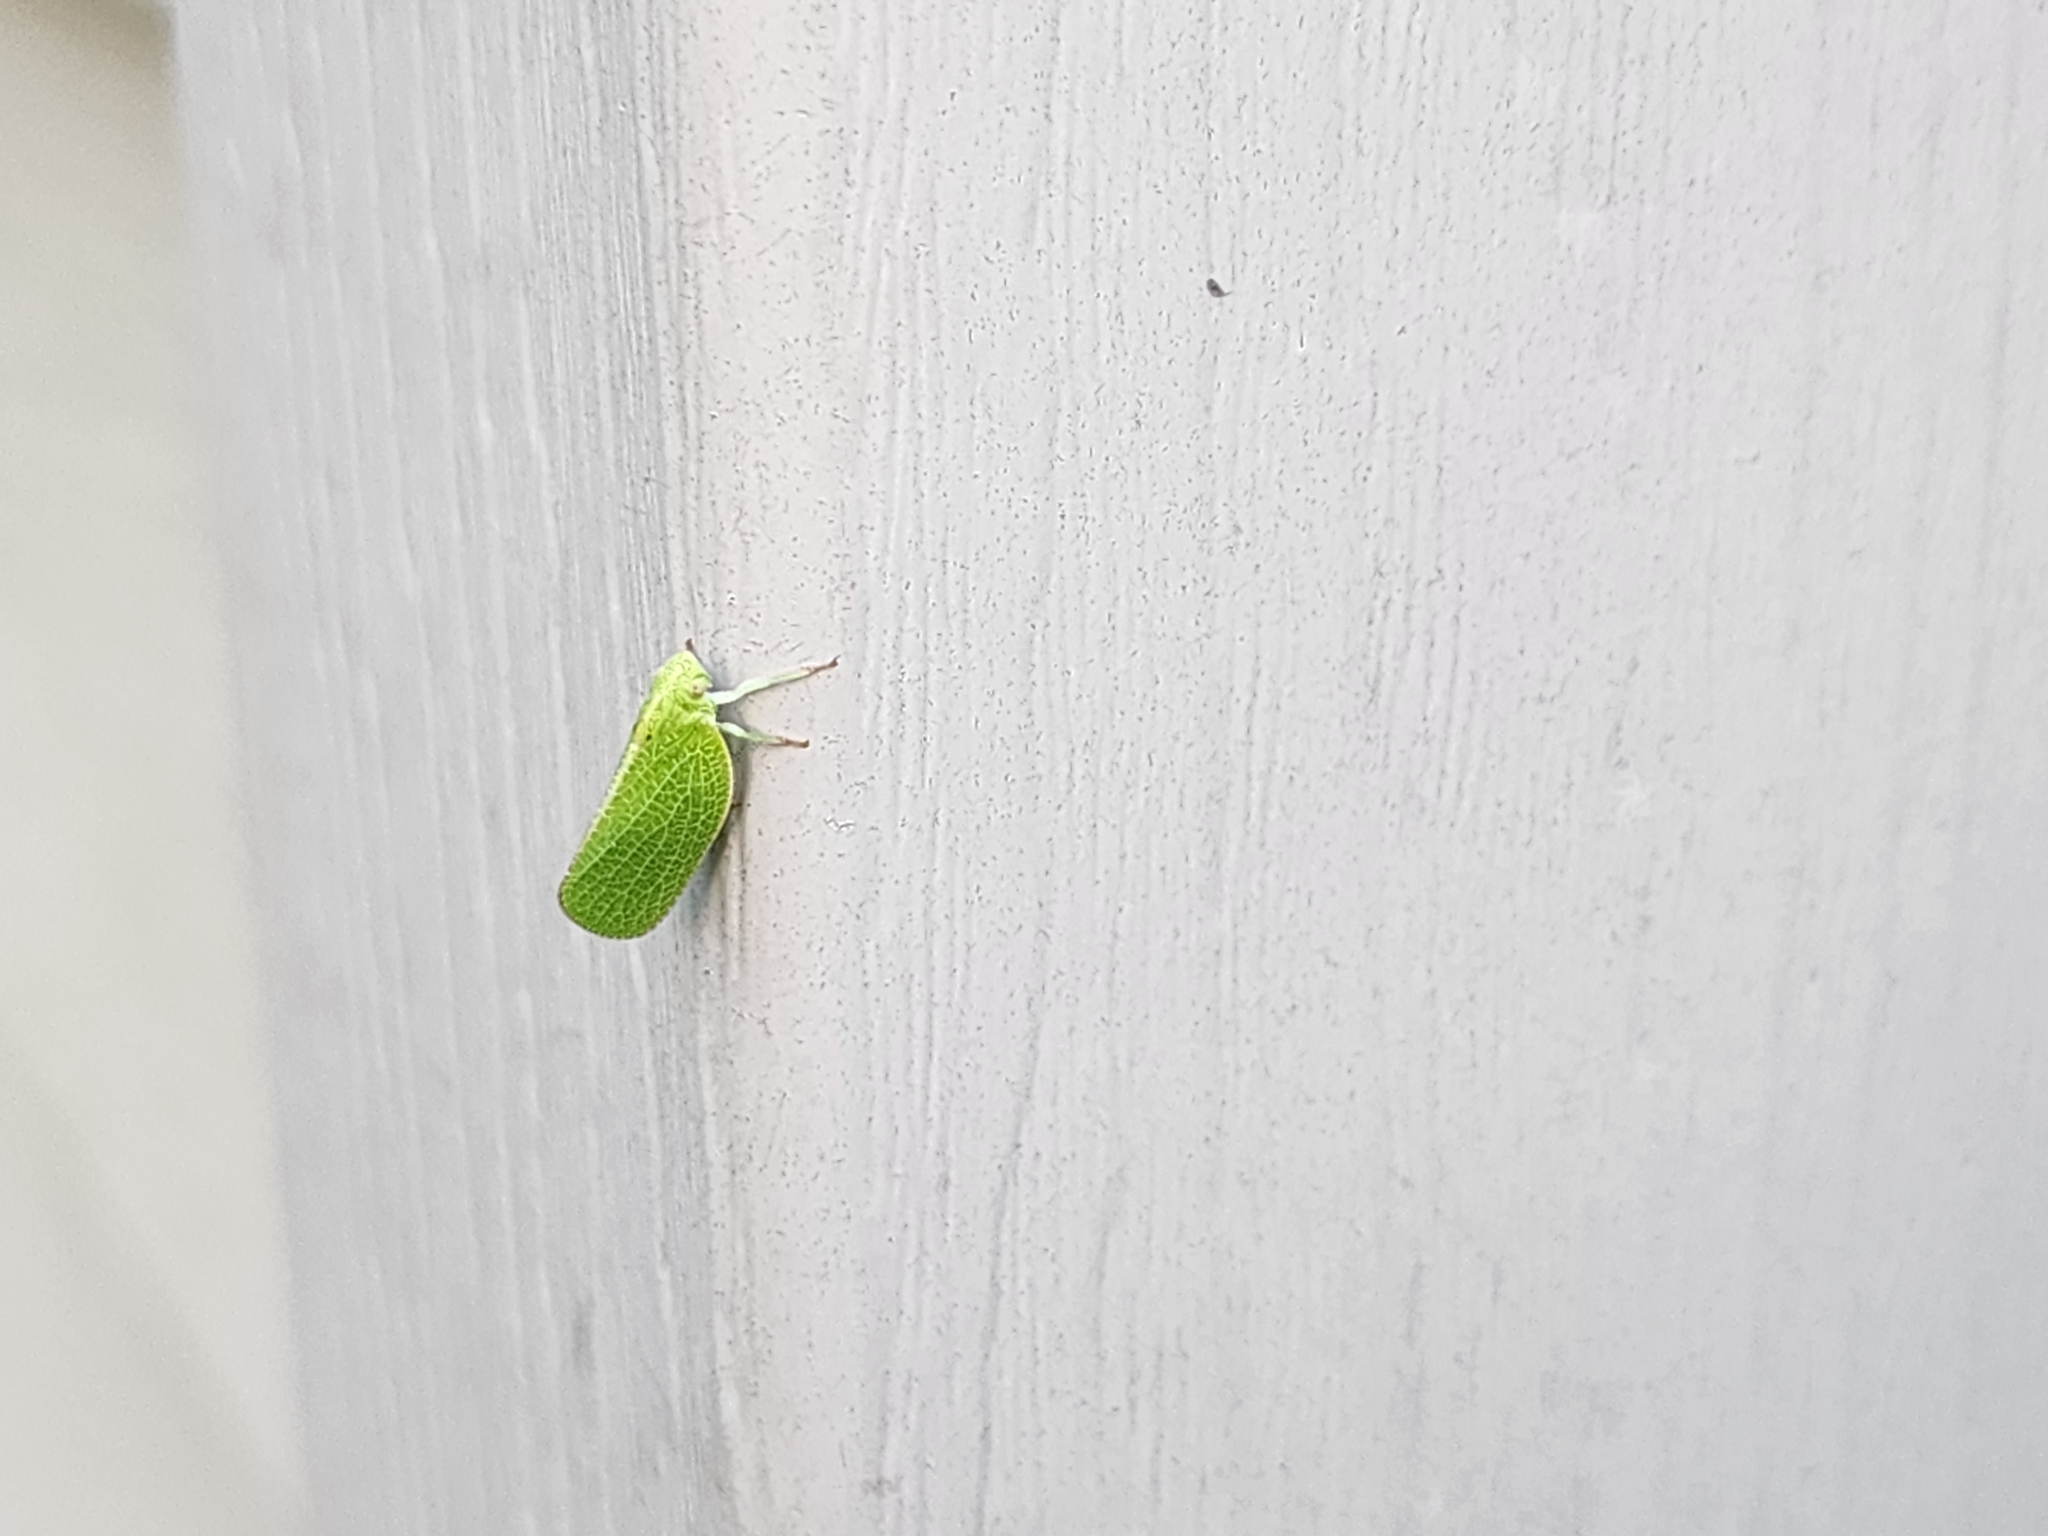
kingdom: Animalia
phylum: Arthropoda
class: Insecta
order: Hemiptera
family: Acanaloniidae
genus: Acanalonia
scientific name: Acanalonia conica
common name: Green cone-headed planthopper
